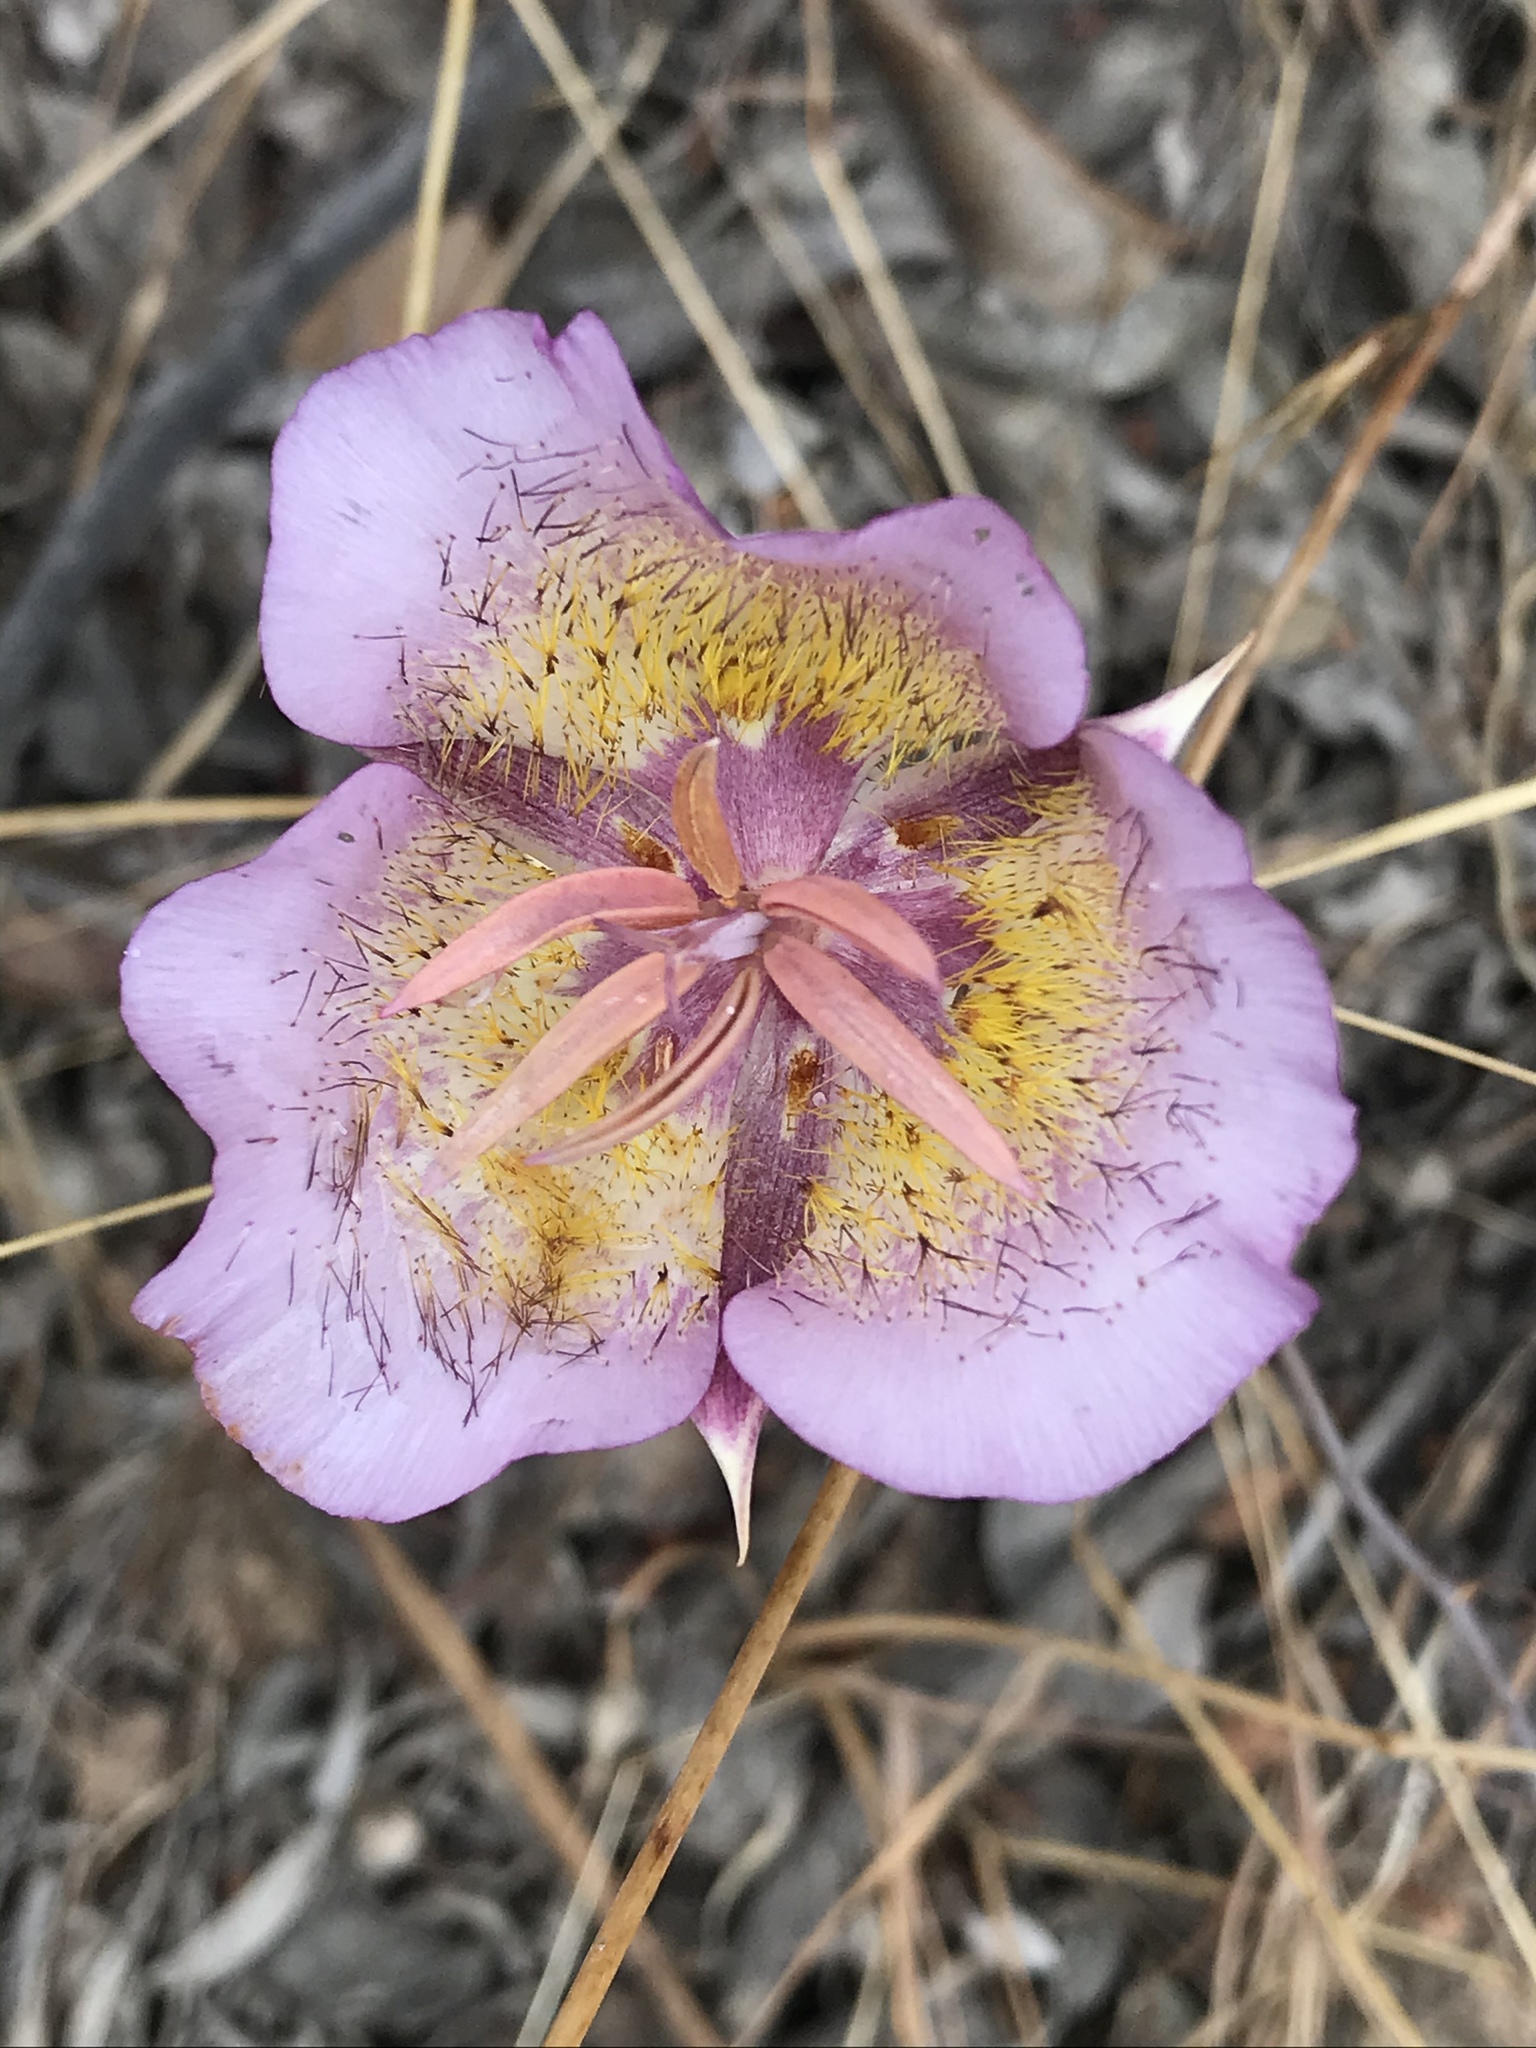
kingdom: Plantae
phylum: Tracheophyta
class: Liliopsida
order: Liliales
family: Liliaceae
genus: Calochortus
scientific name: Calochortus plummerae
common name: Plummer's mariposa-lily
